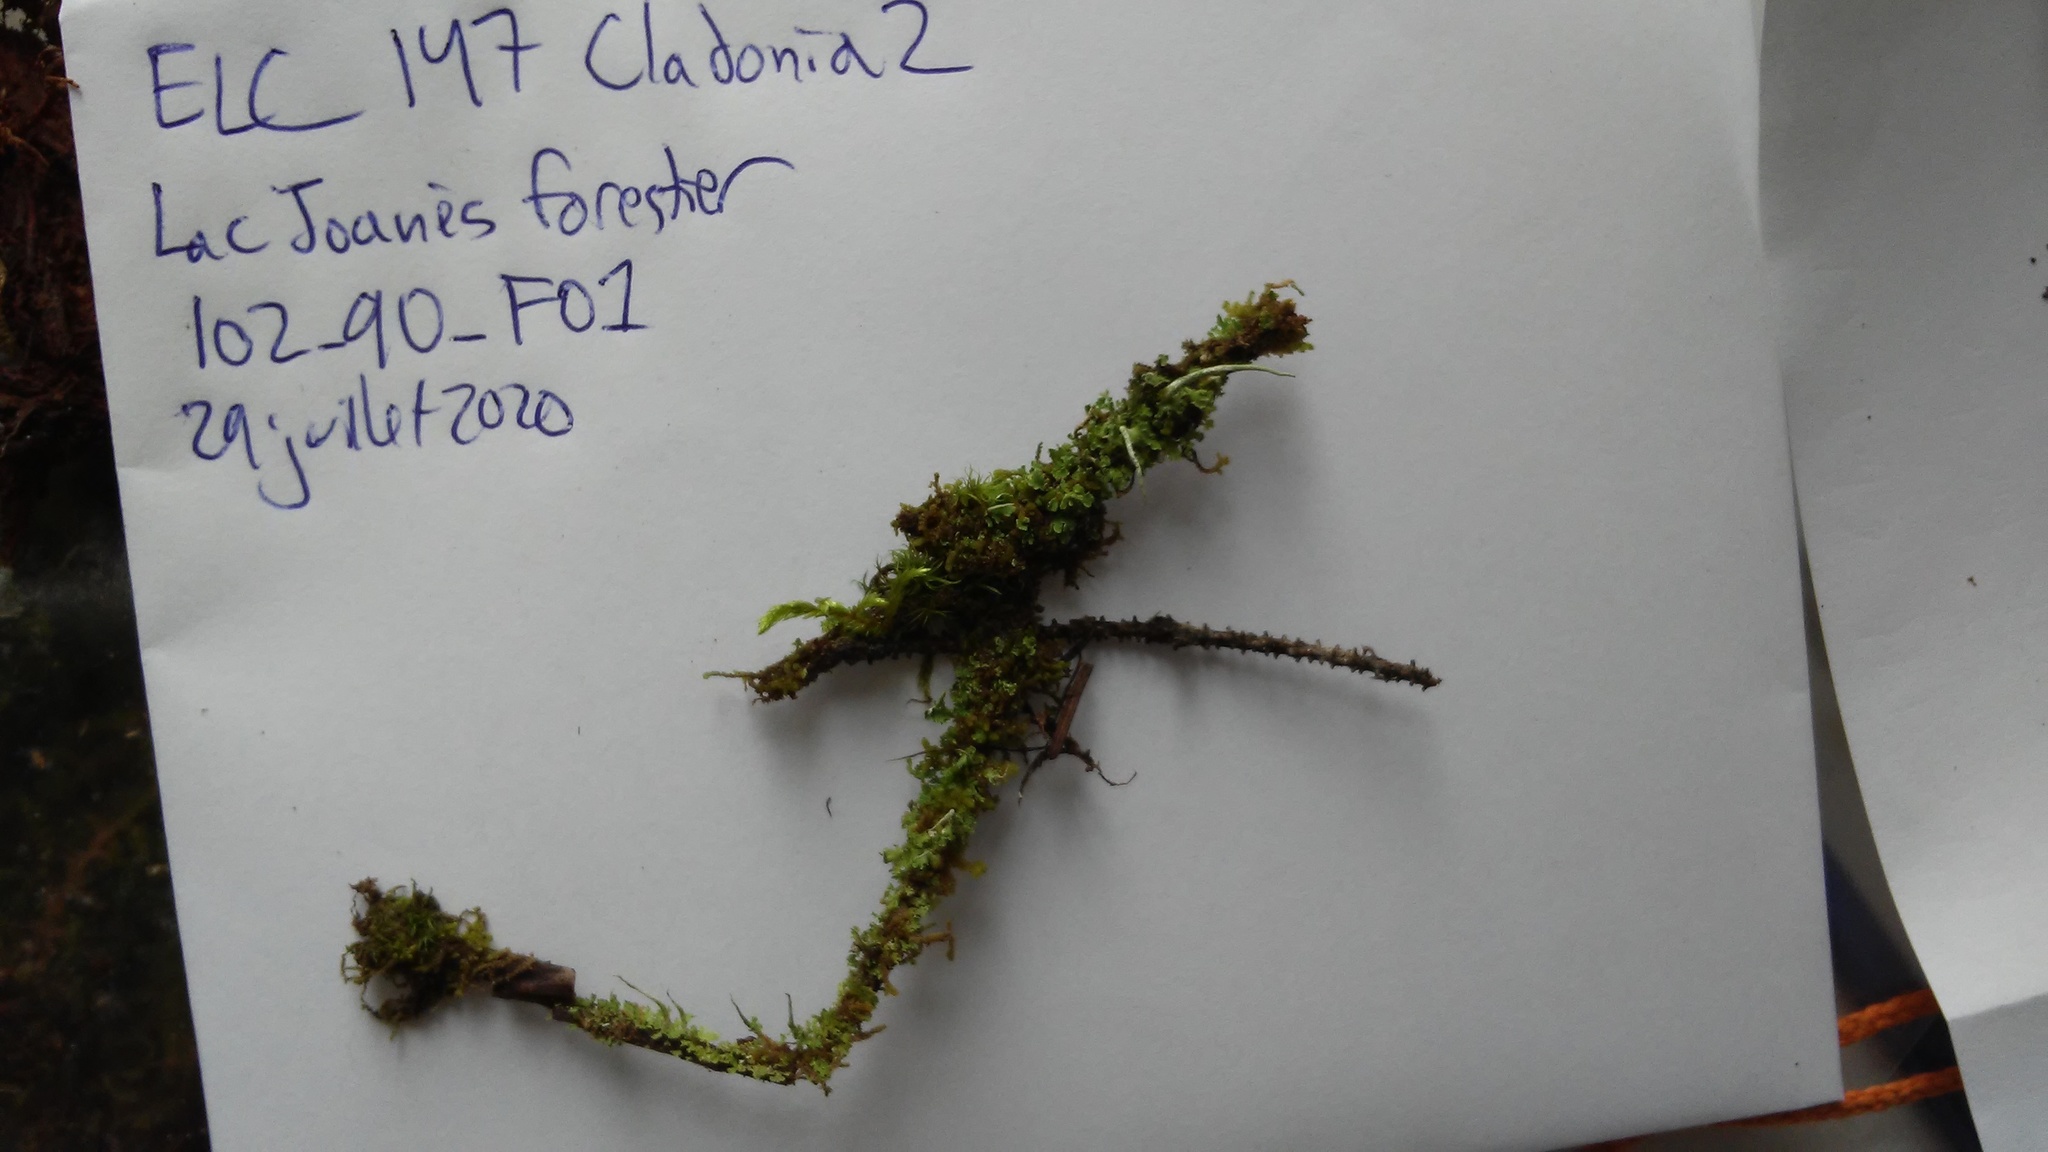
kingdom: Fungi
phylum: Ascomycota
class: Lecanoromycetes
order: Lecanorales
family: Cladoniaceae
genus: Cladonia
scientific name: Cladonia ochrochlora
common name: Smooth-footed powderhorn
